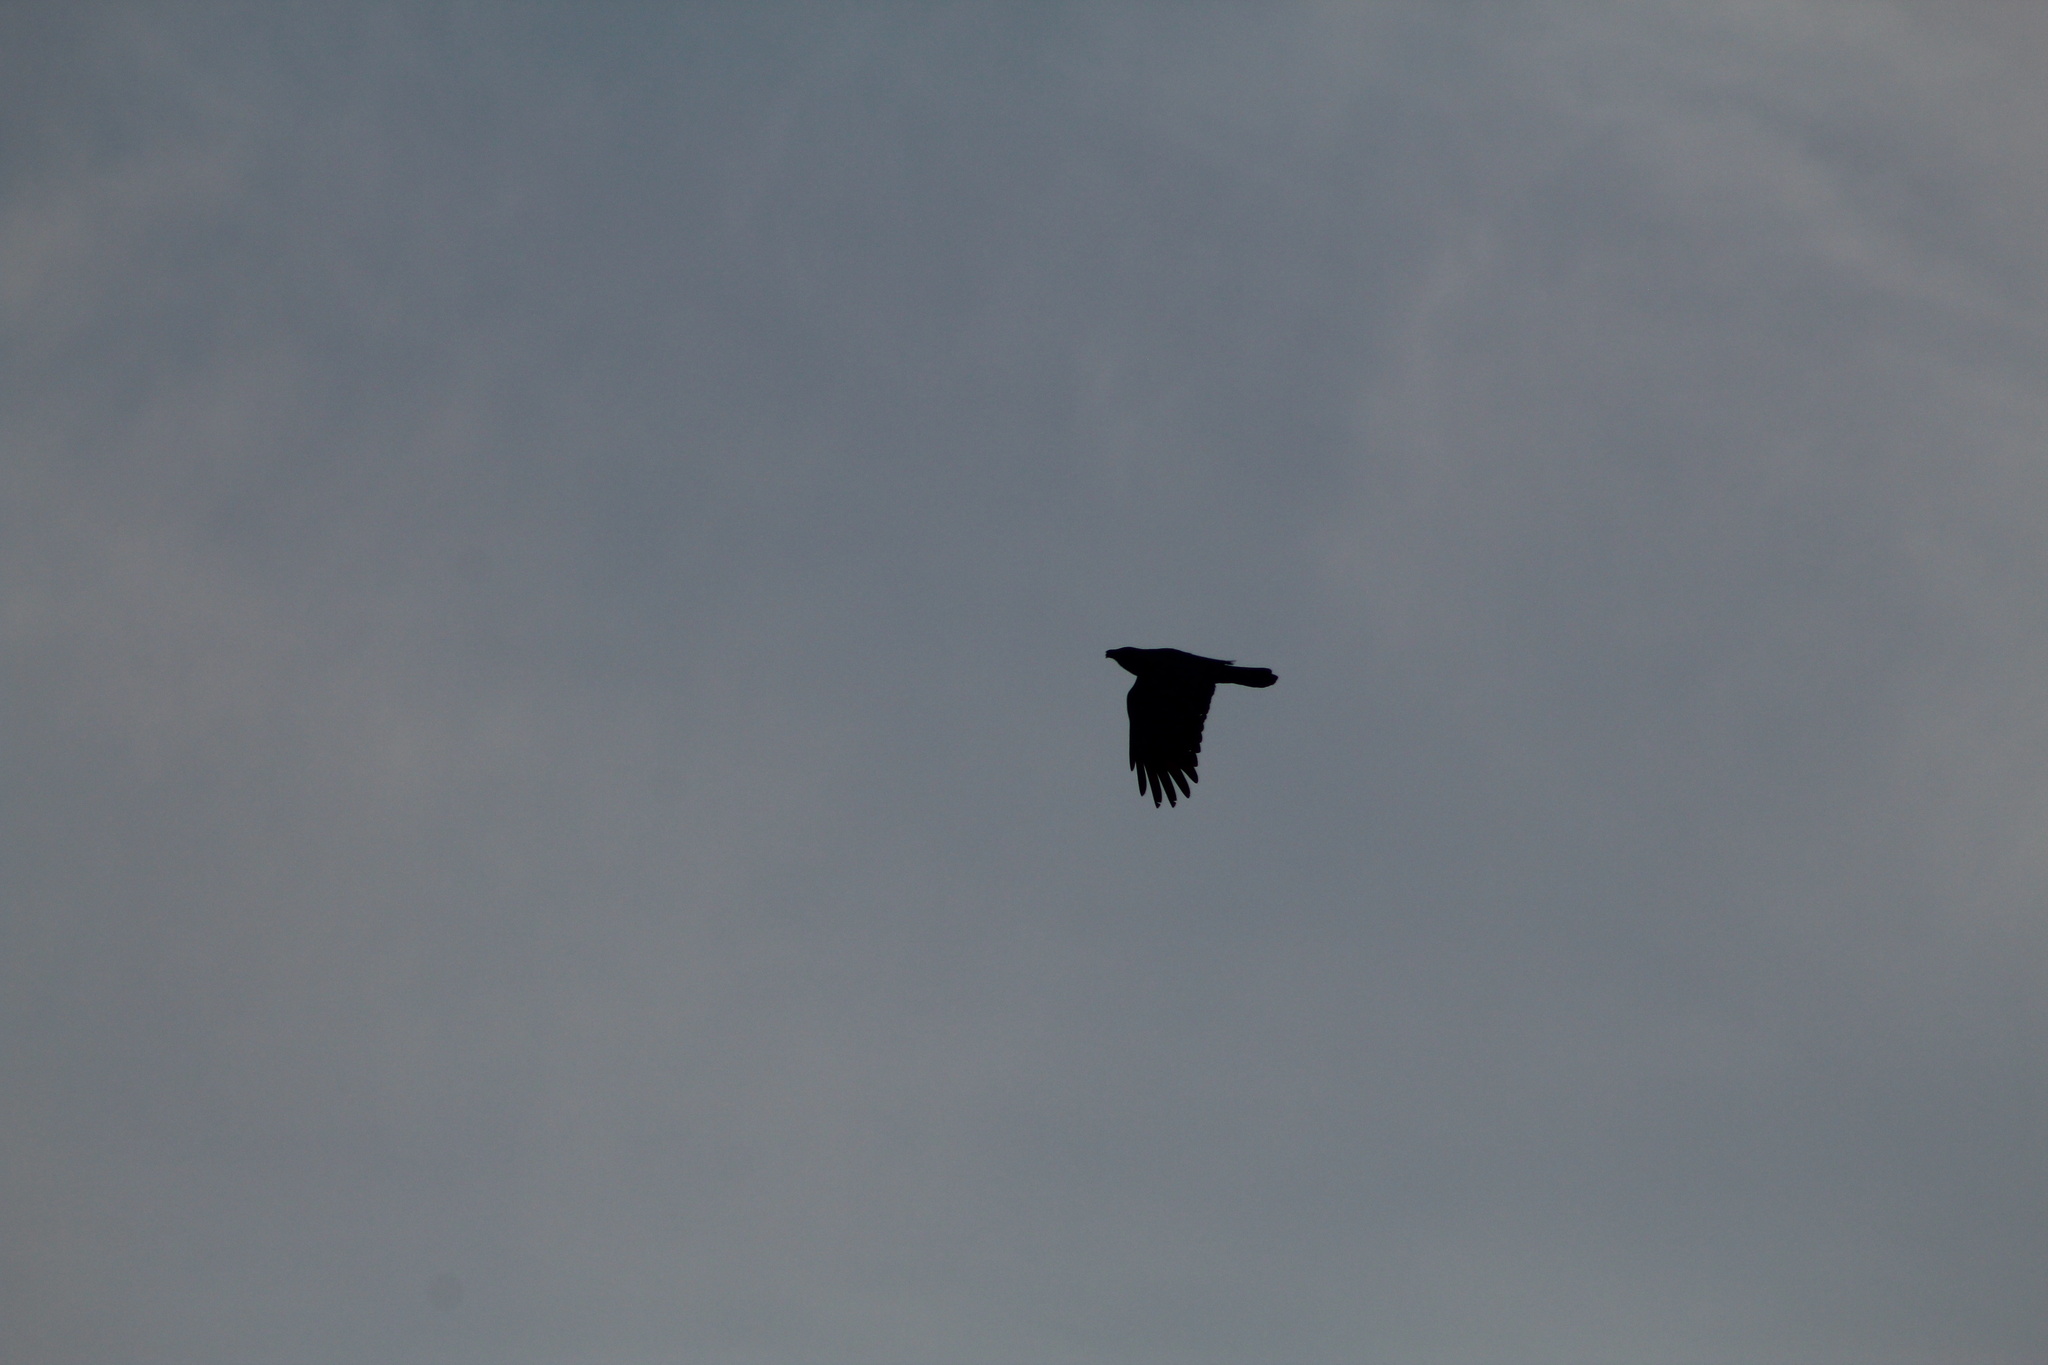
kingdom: Animalia
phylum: Chordata
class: Aves
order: Passeriformes
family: Corvidae
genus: Corvus
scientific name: Corvus brachyrhynchos
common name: American crow
